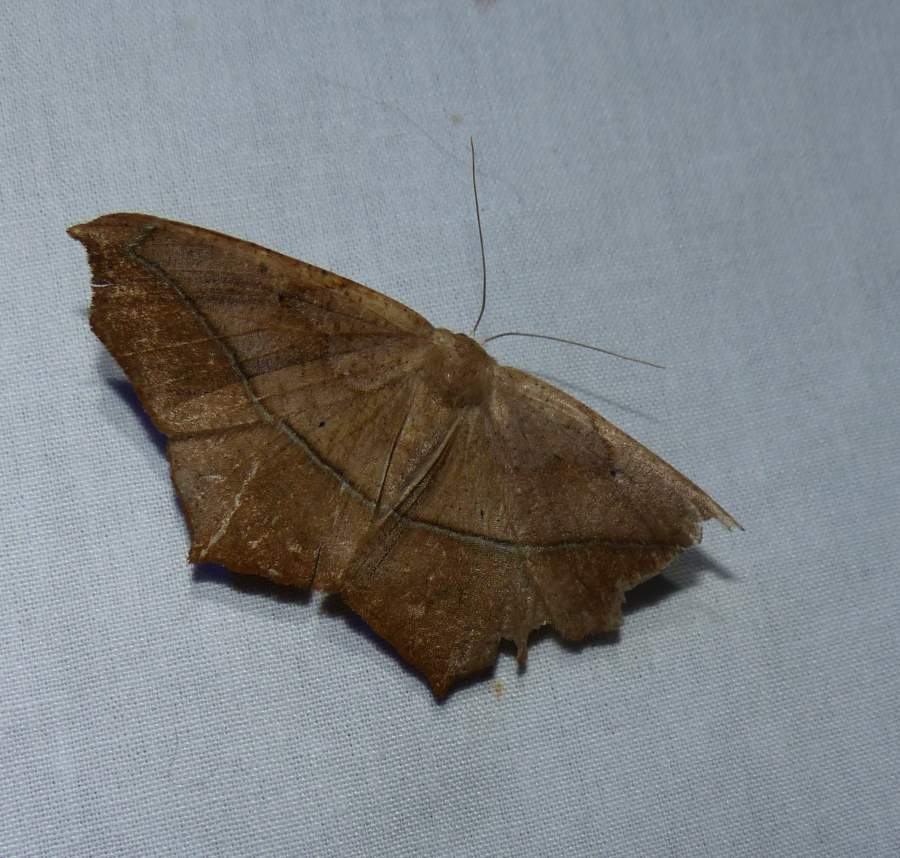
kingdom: Animalia
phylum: Arthropoda
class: Insecta
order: Lepidoptera
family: Geometridae
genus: Prochoerodes
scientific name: Prochoerodes lineola
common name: Large maple spanworm
